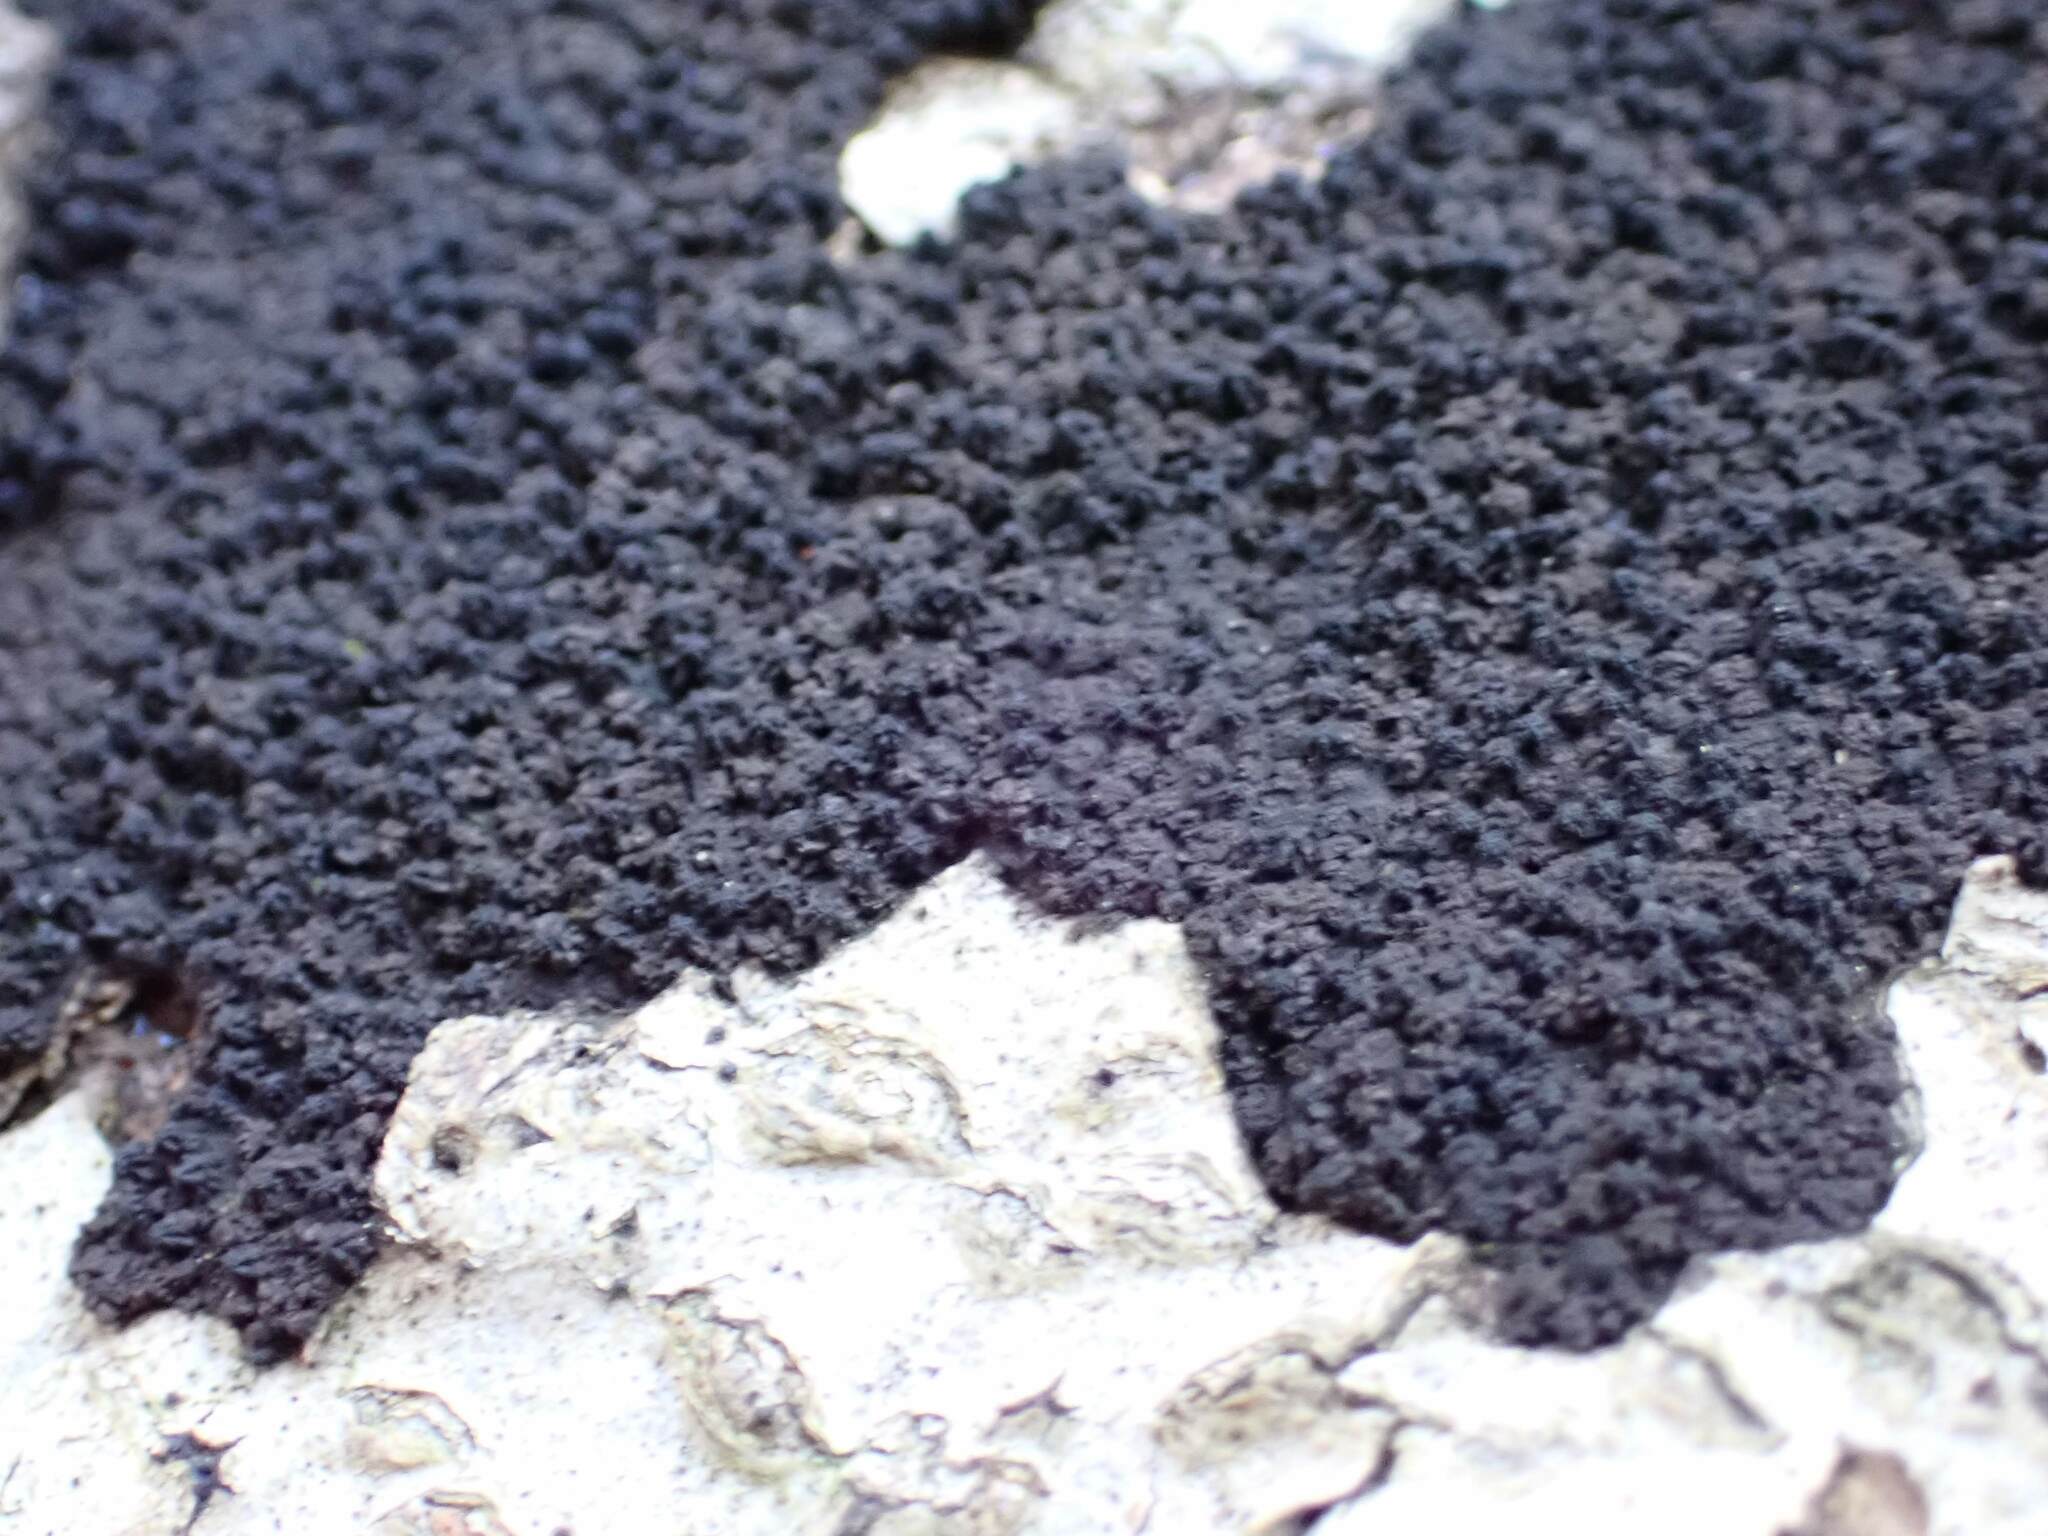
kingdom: Fungi
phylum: Ascomycota
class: Sordariomycetes
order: Xylariales
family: Diatrypaceae
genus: Eutypa
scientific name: Eutypa spinosa
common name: Spiral tarcrust
